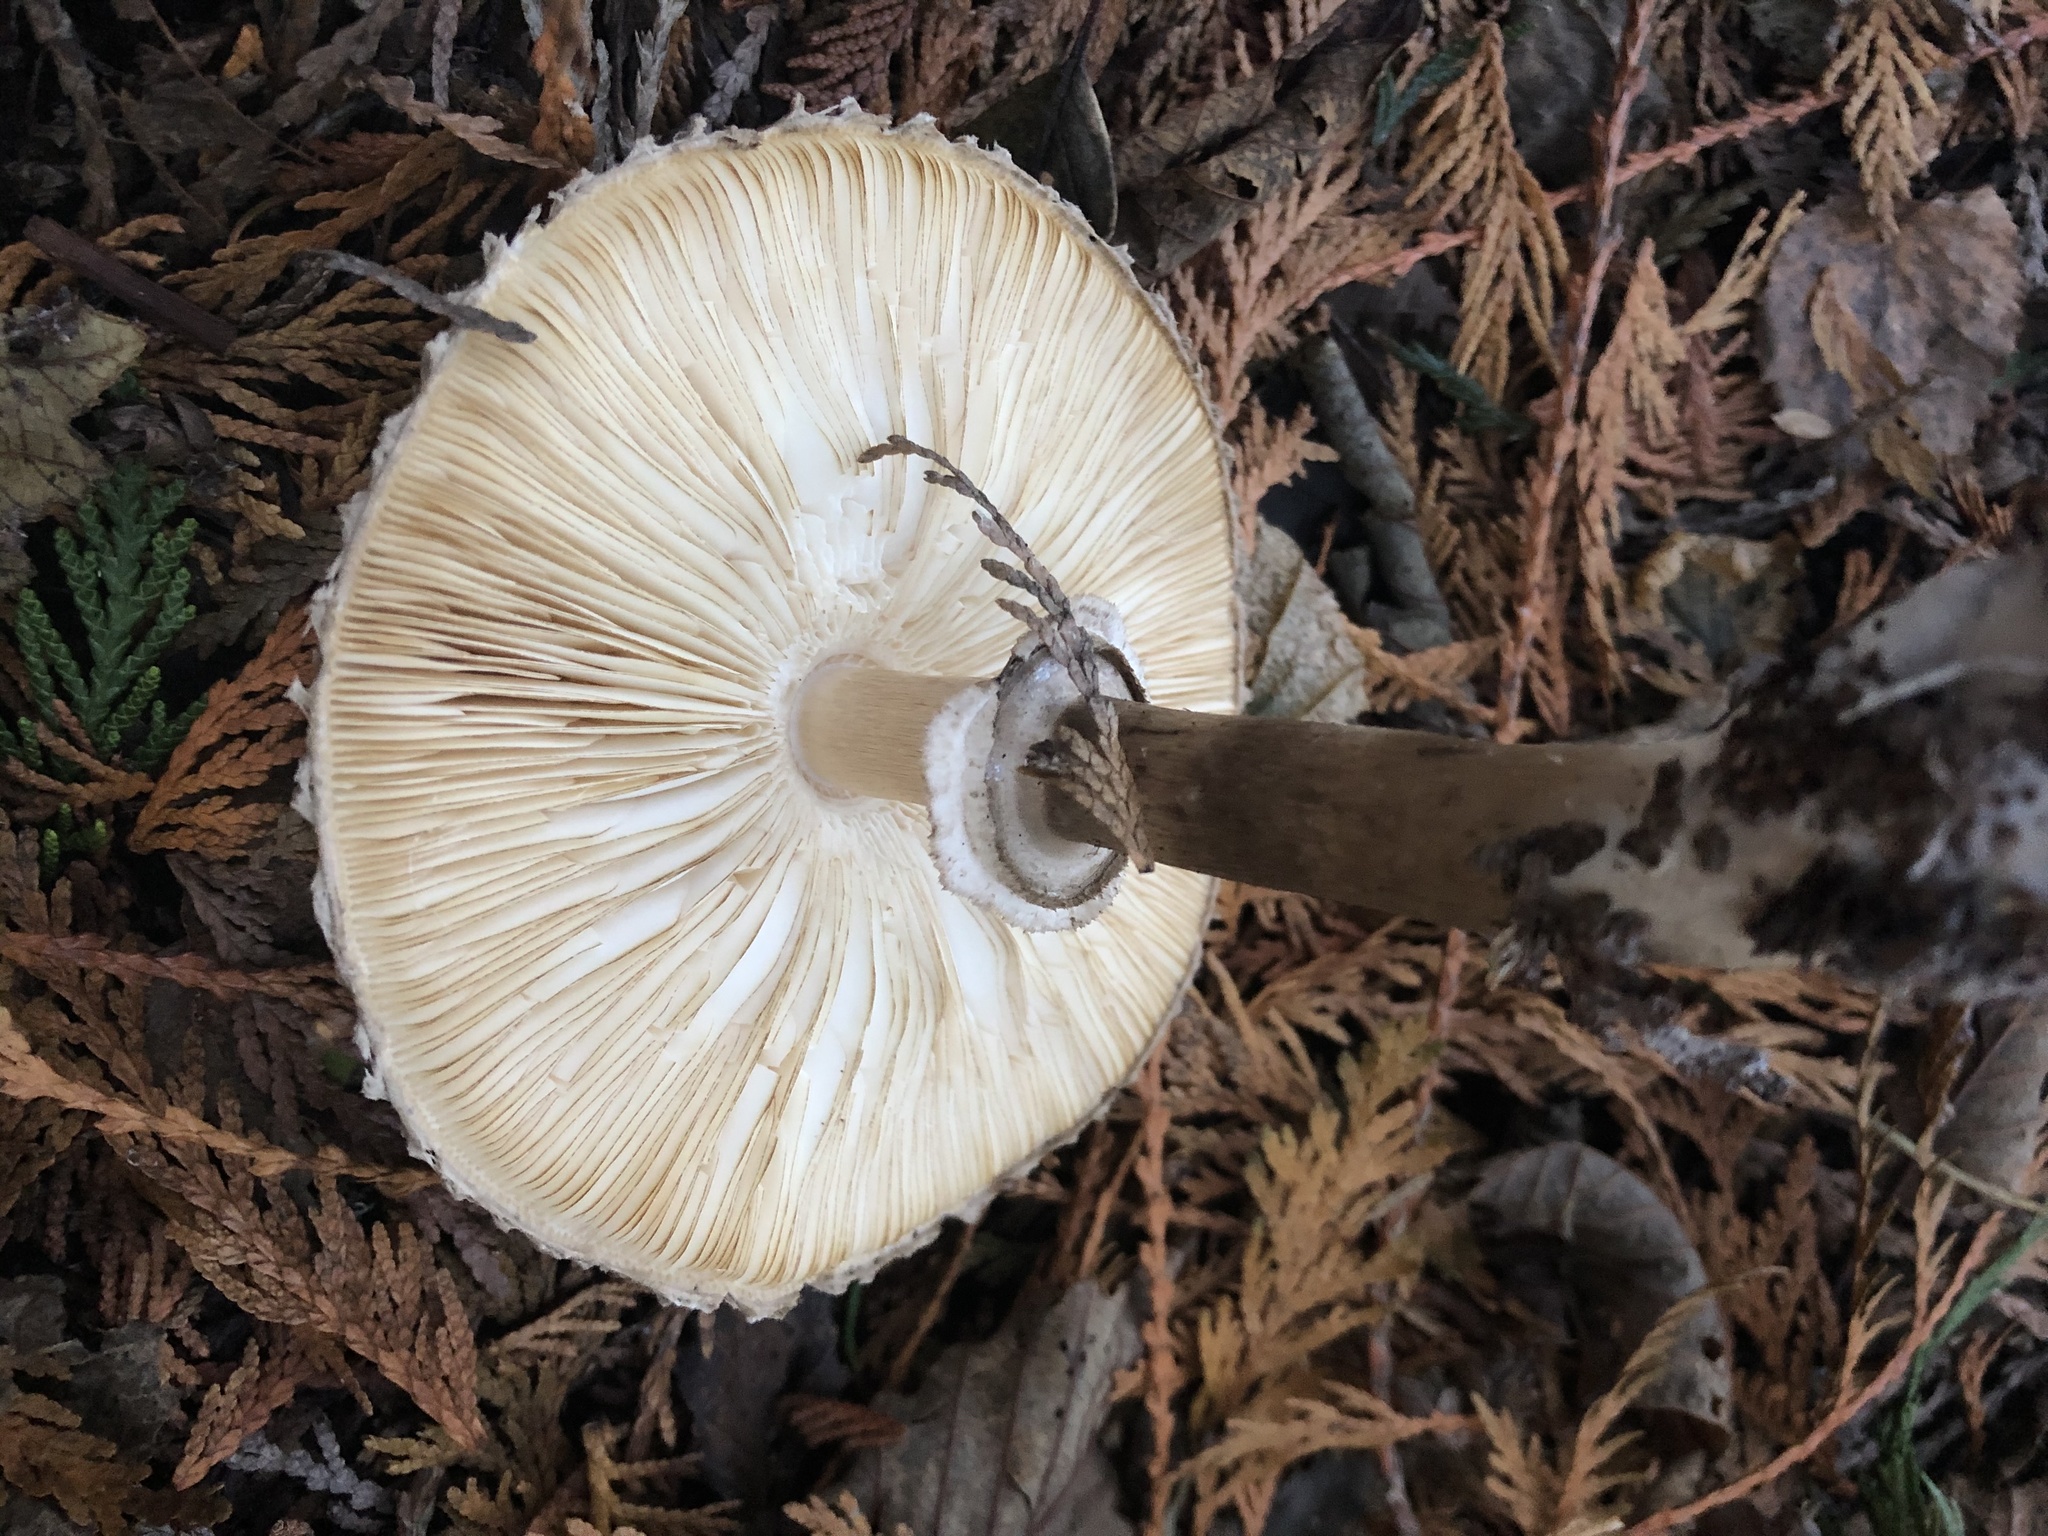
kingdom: Fungi
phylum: Basidiomycota
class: Agaricomycetes
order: Agaricales
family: Agaricaceae
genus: Chlorophyllum
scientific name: Chlorophyllum olivieri
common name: Conifer parasol
